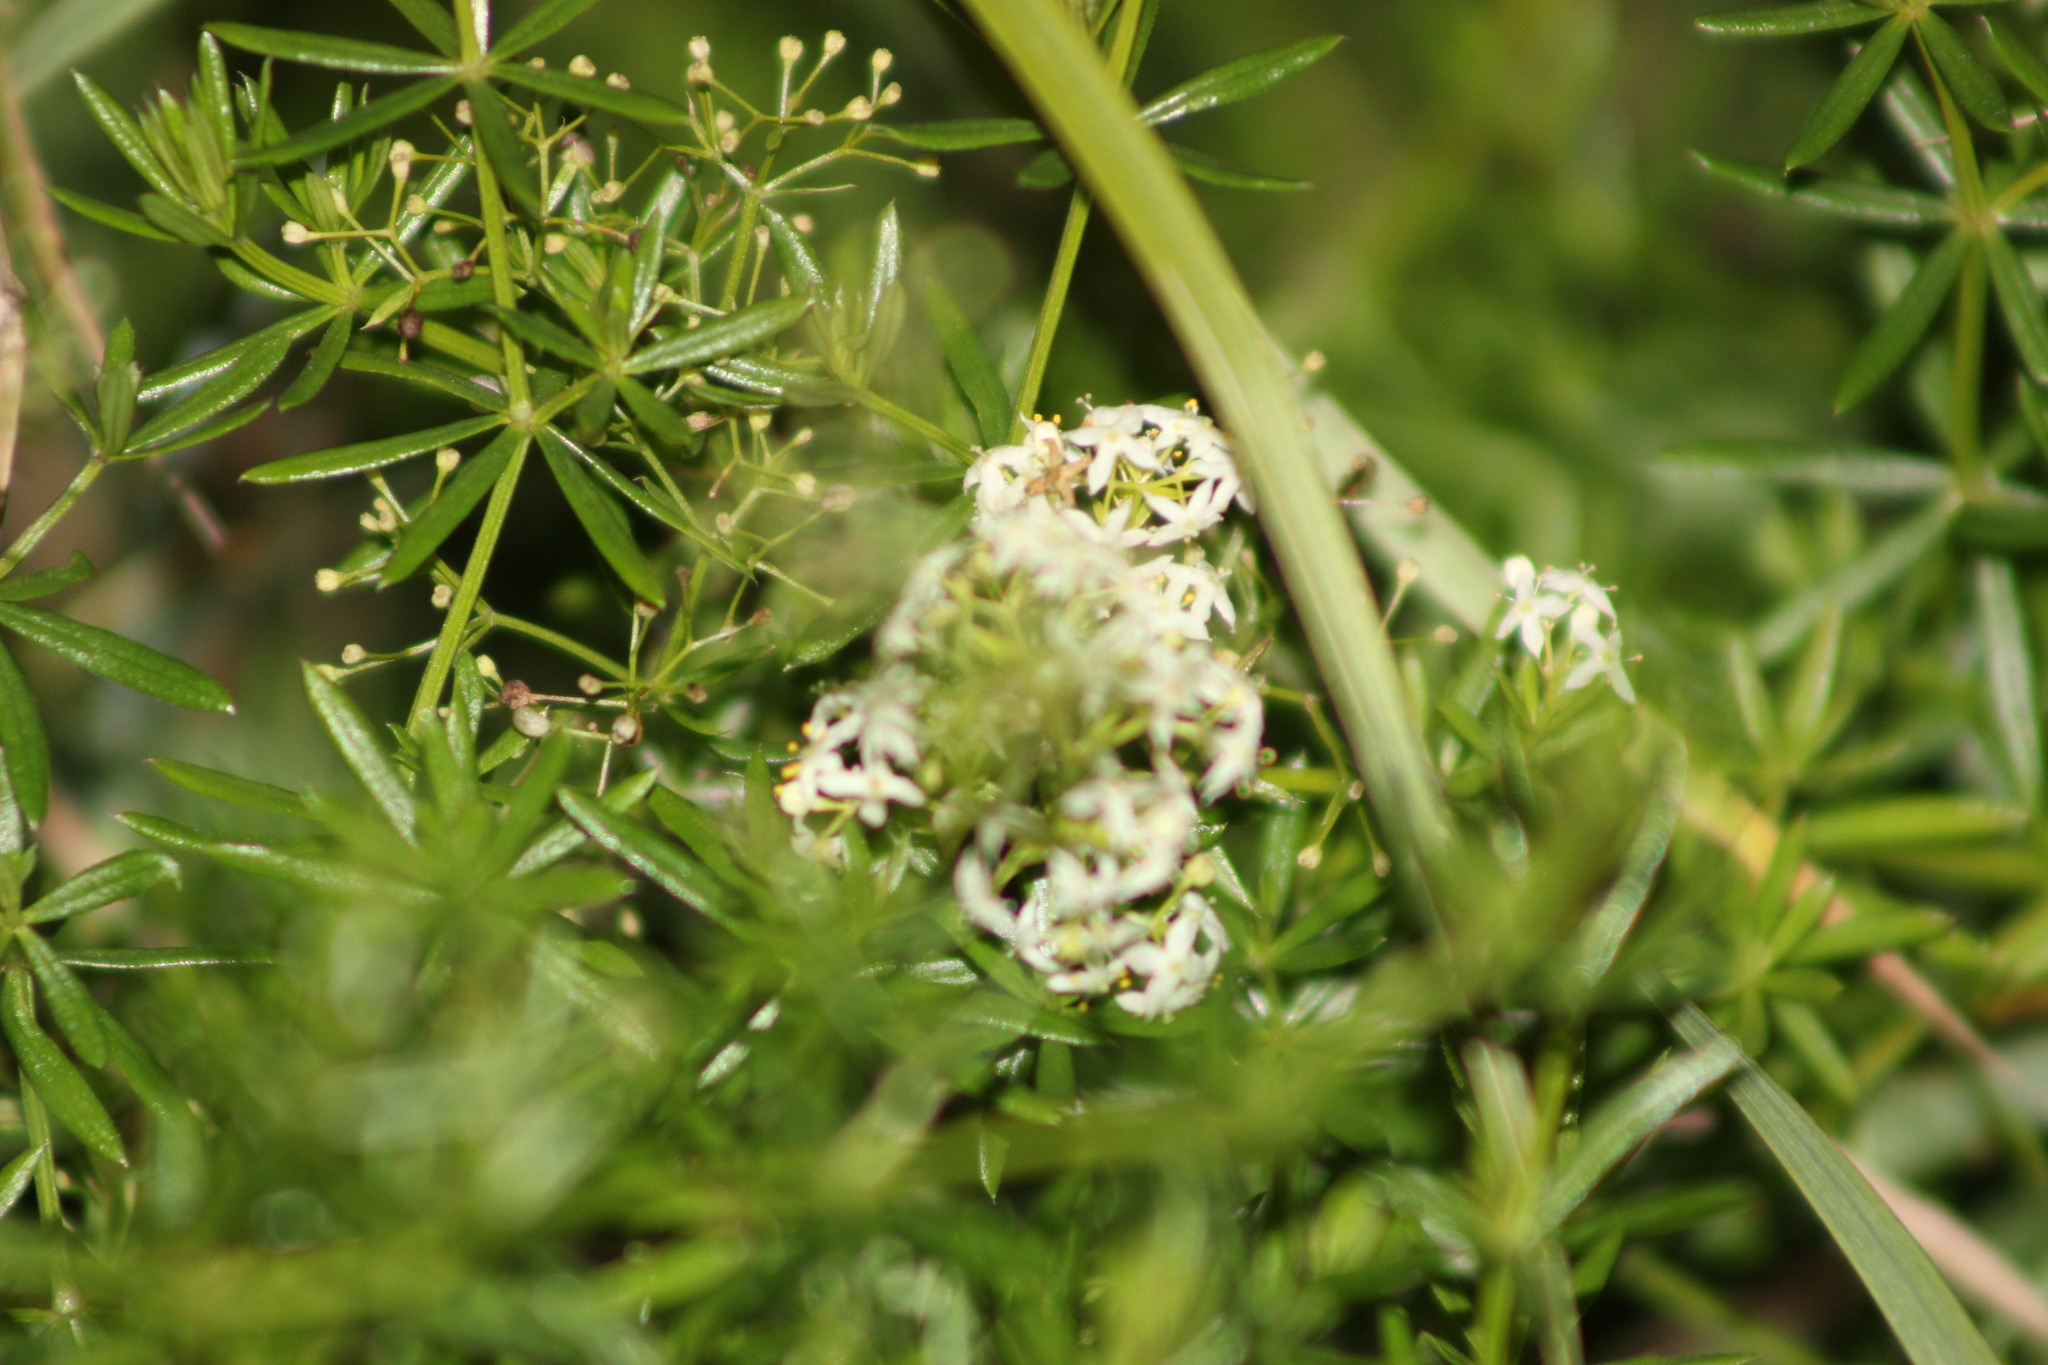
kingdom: Plantae
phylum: Tracheophyta
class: Magnoliopsida
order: Gentianales
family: Rubiaceae
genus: Galium
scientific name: Galium mollugo
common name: Hedge bedstraw
